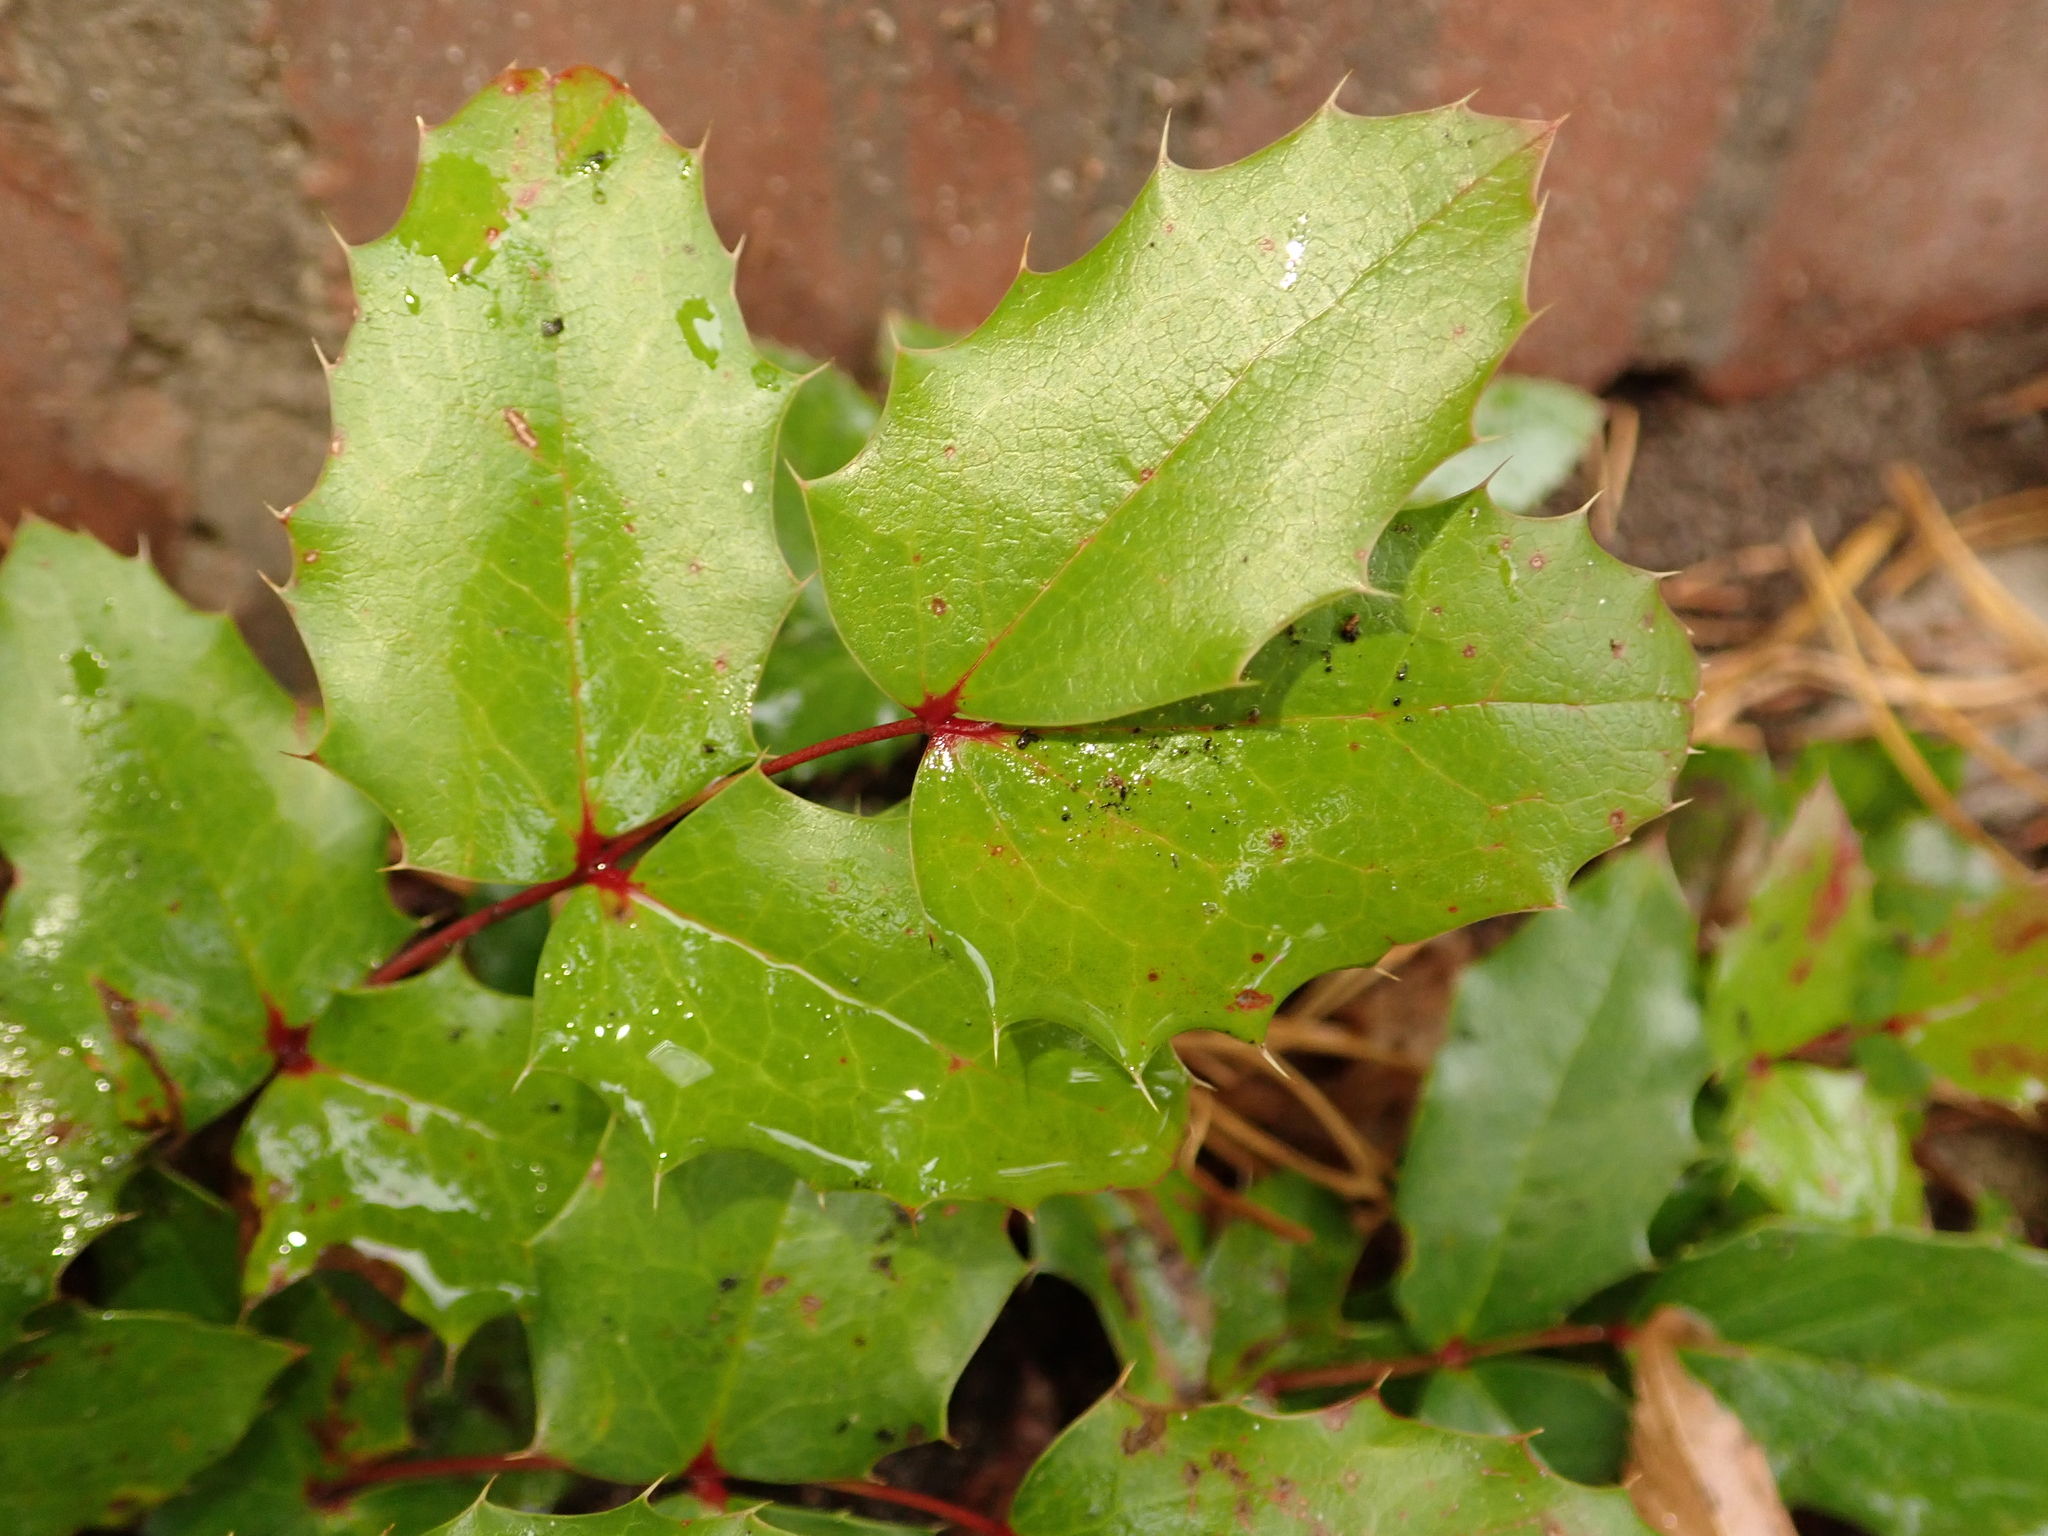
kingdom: Plantae
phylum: Tracheophyta
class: Magnoliopsida
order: Ranunculales
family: Berberidaceae
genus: Mahonia
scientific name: Mahonia aquifolium
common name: Oregon-grape
